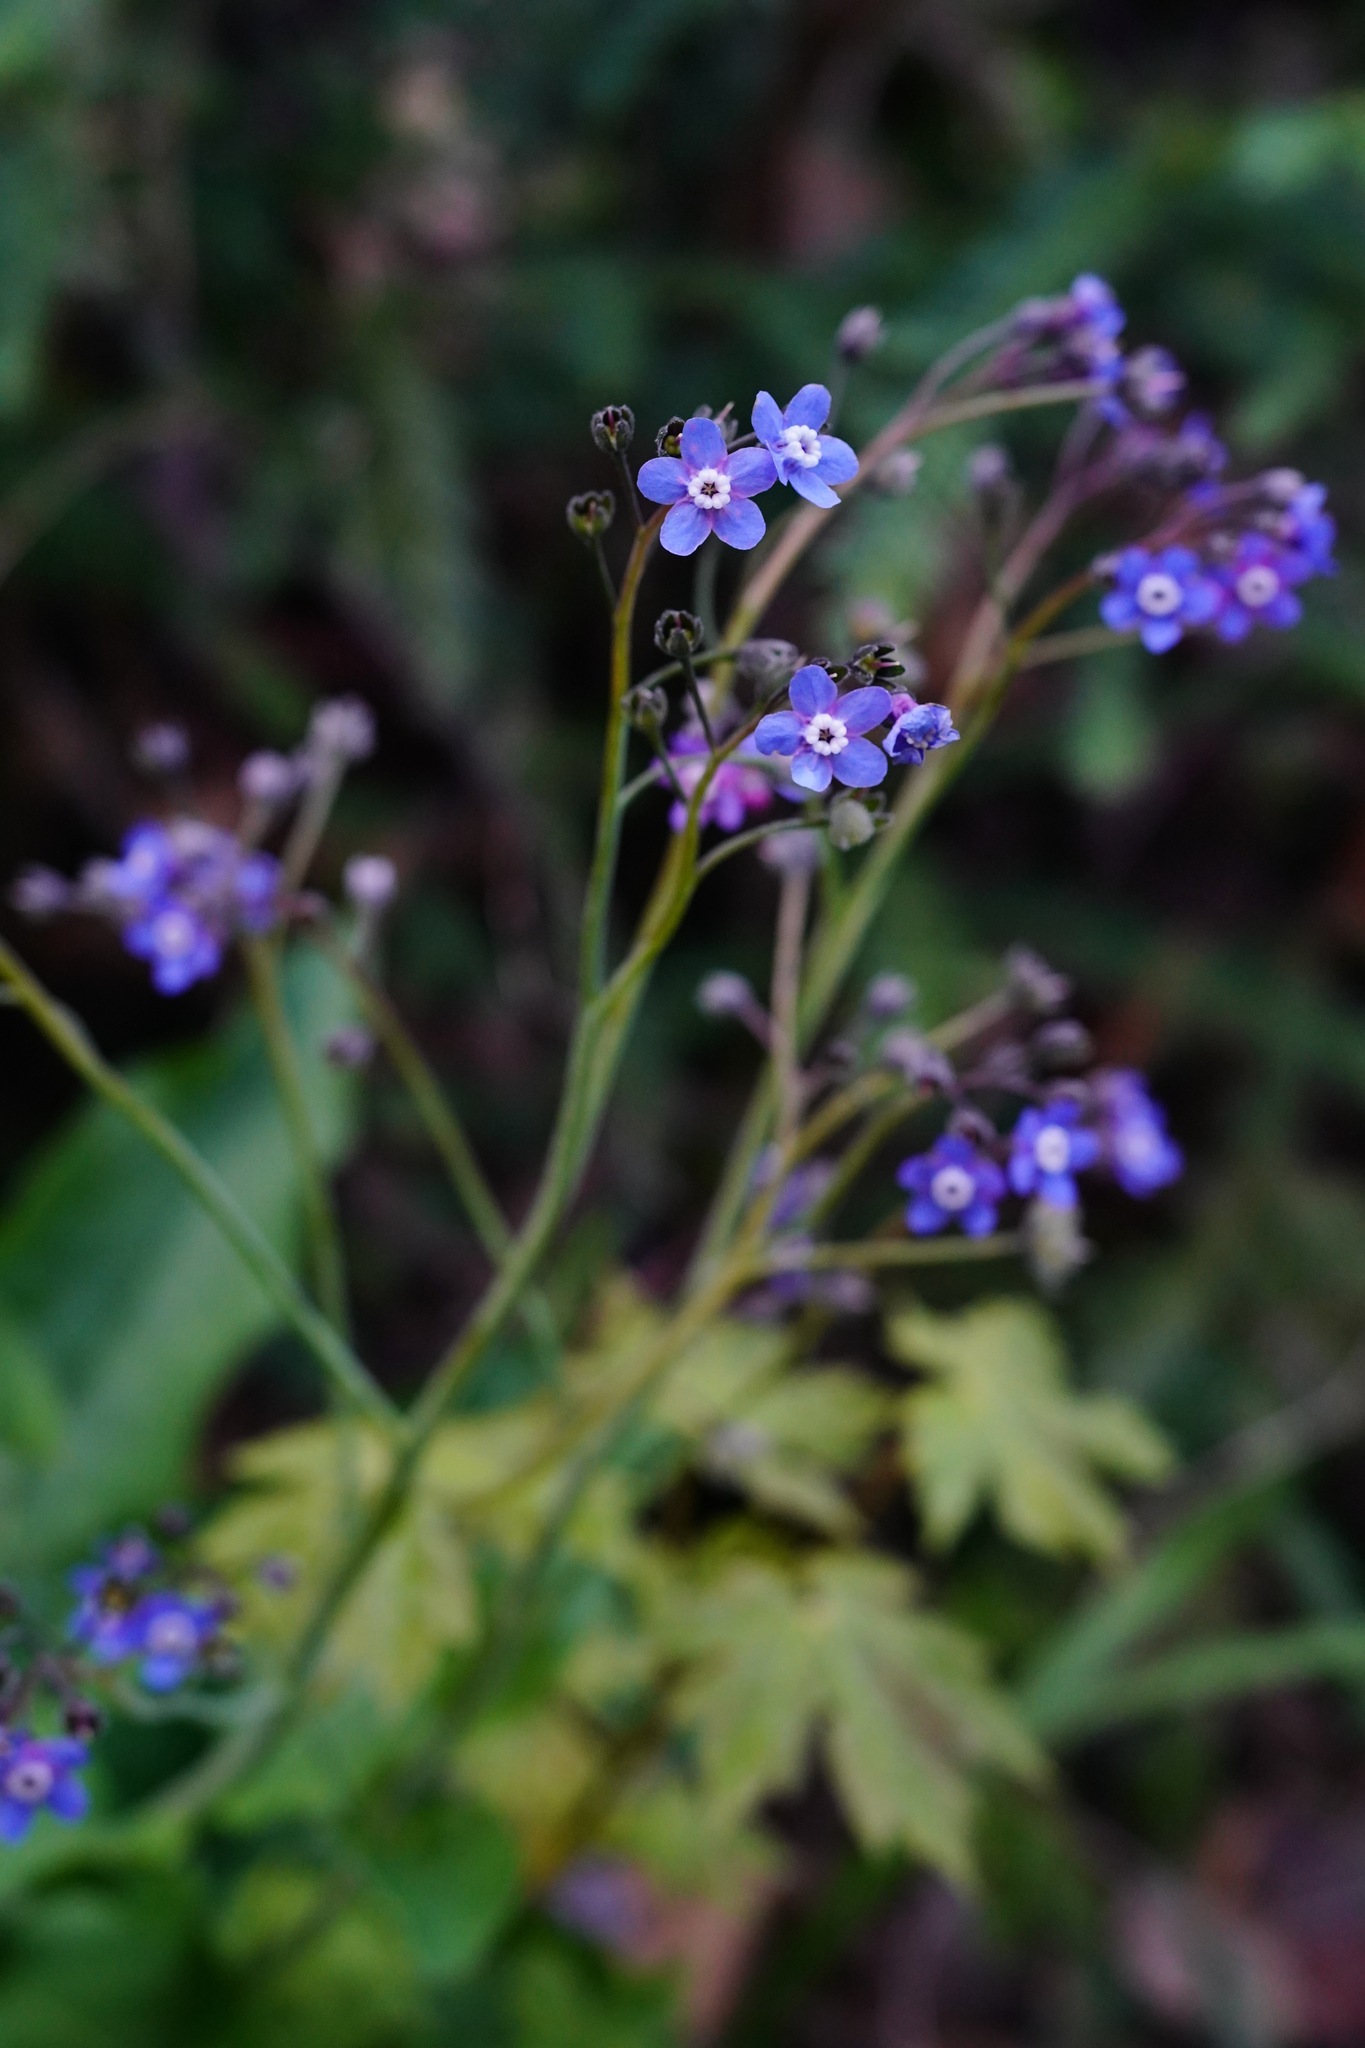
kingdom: Plantae
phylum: Tracheophyta
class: Magnoliopsida
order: Boraginales
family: Boraginaceae
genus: Adelinia
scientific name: Adelinia grande
